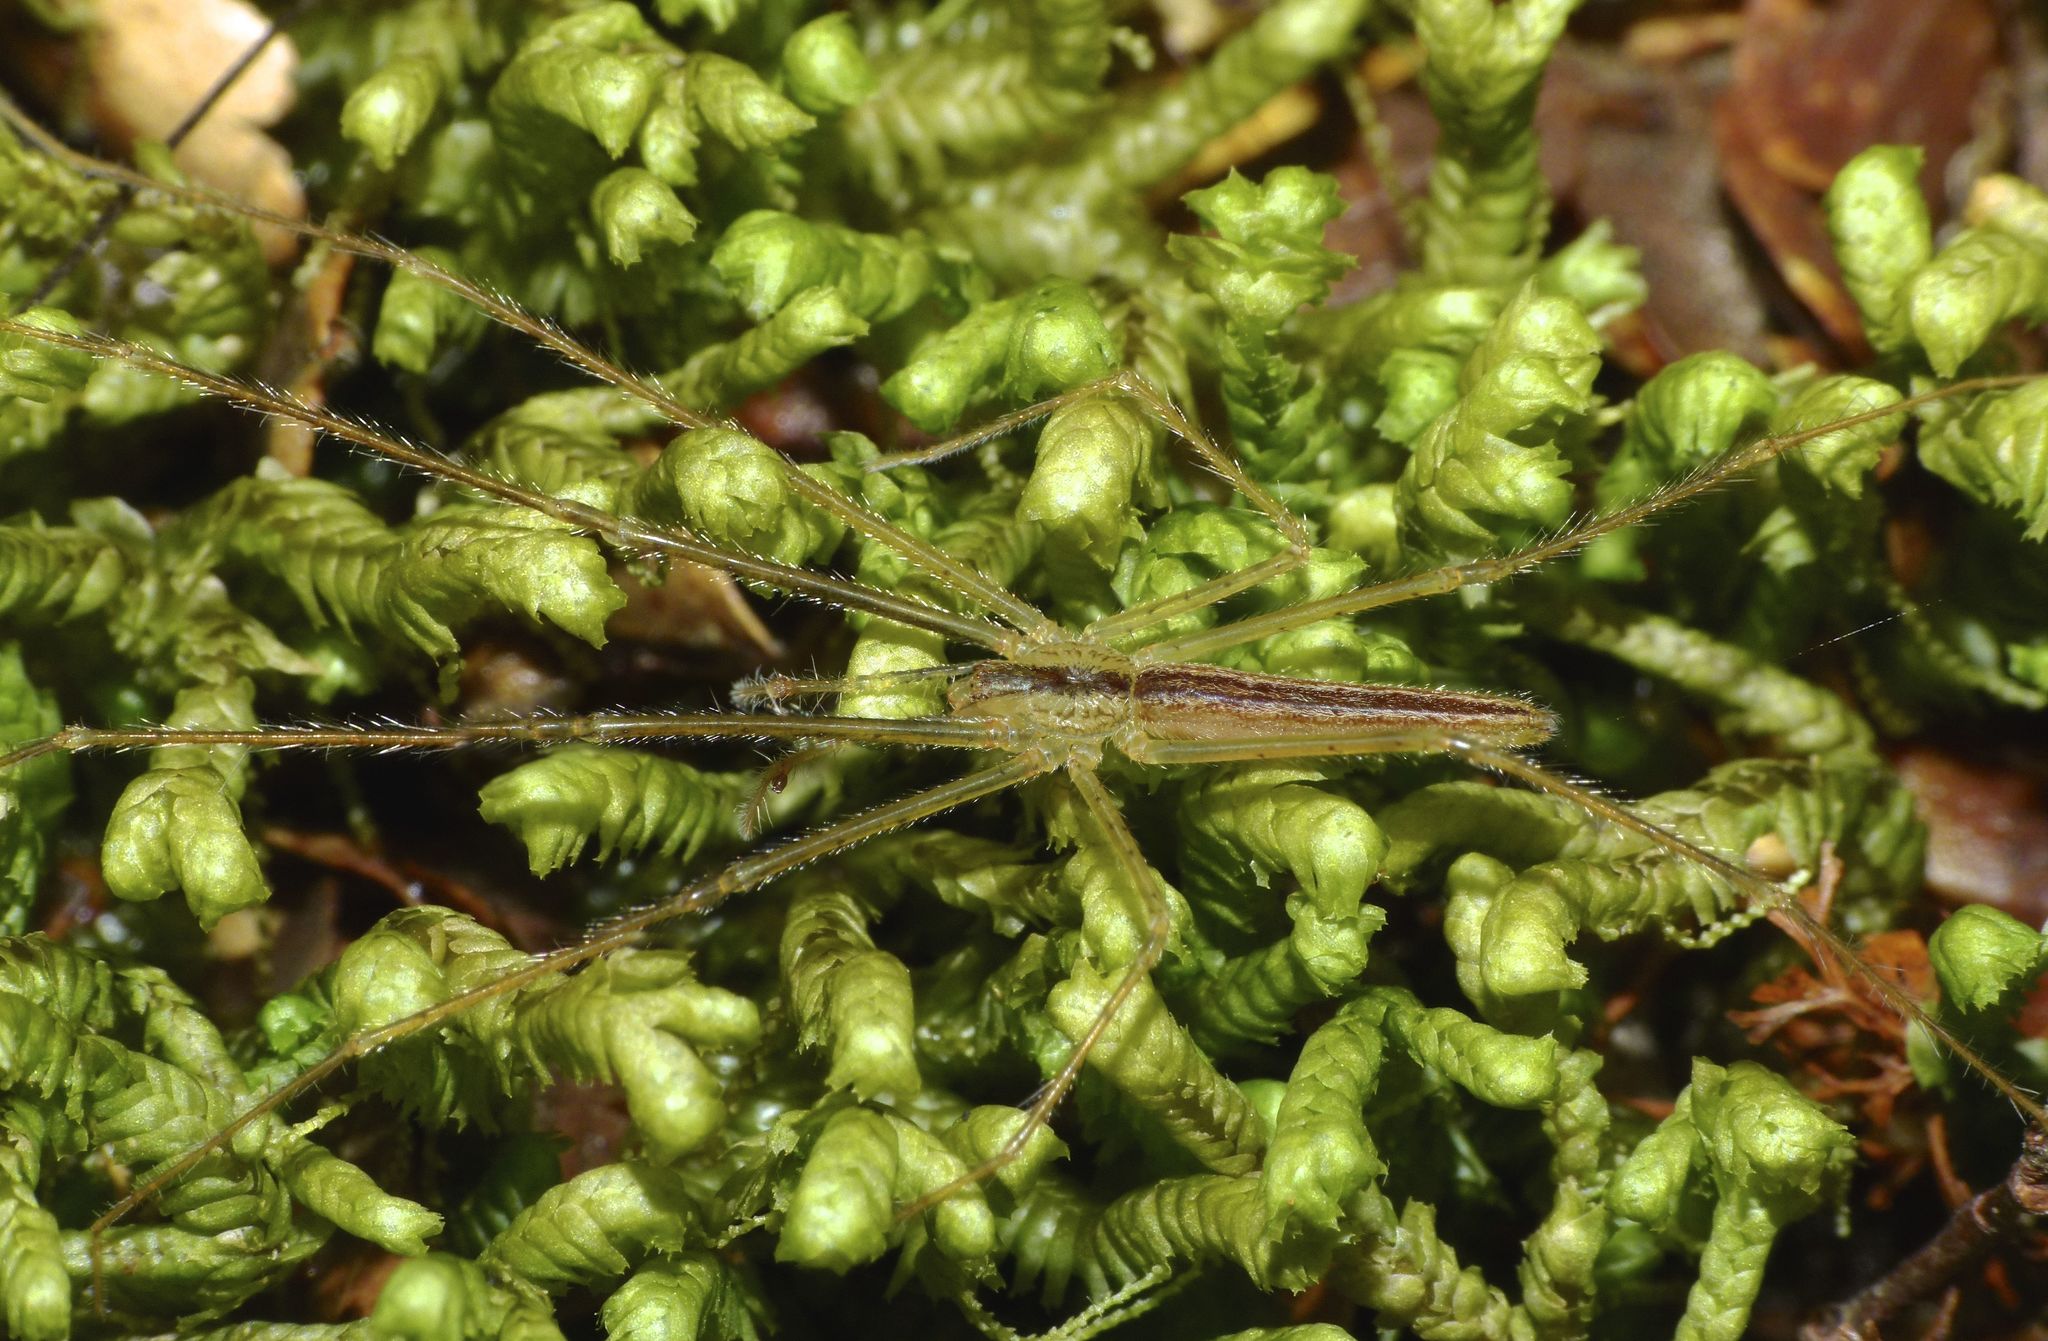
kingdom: Animalia
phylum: Arthropoda
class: Arachnida
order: Araneae
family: Desidae
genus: Ischalea
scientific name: Ischalea spinipes
